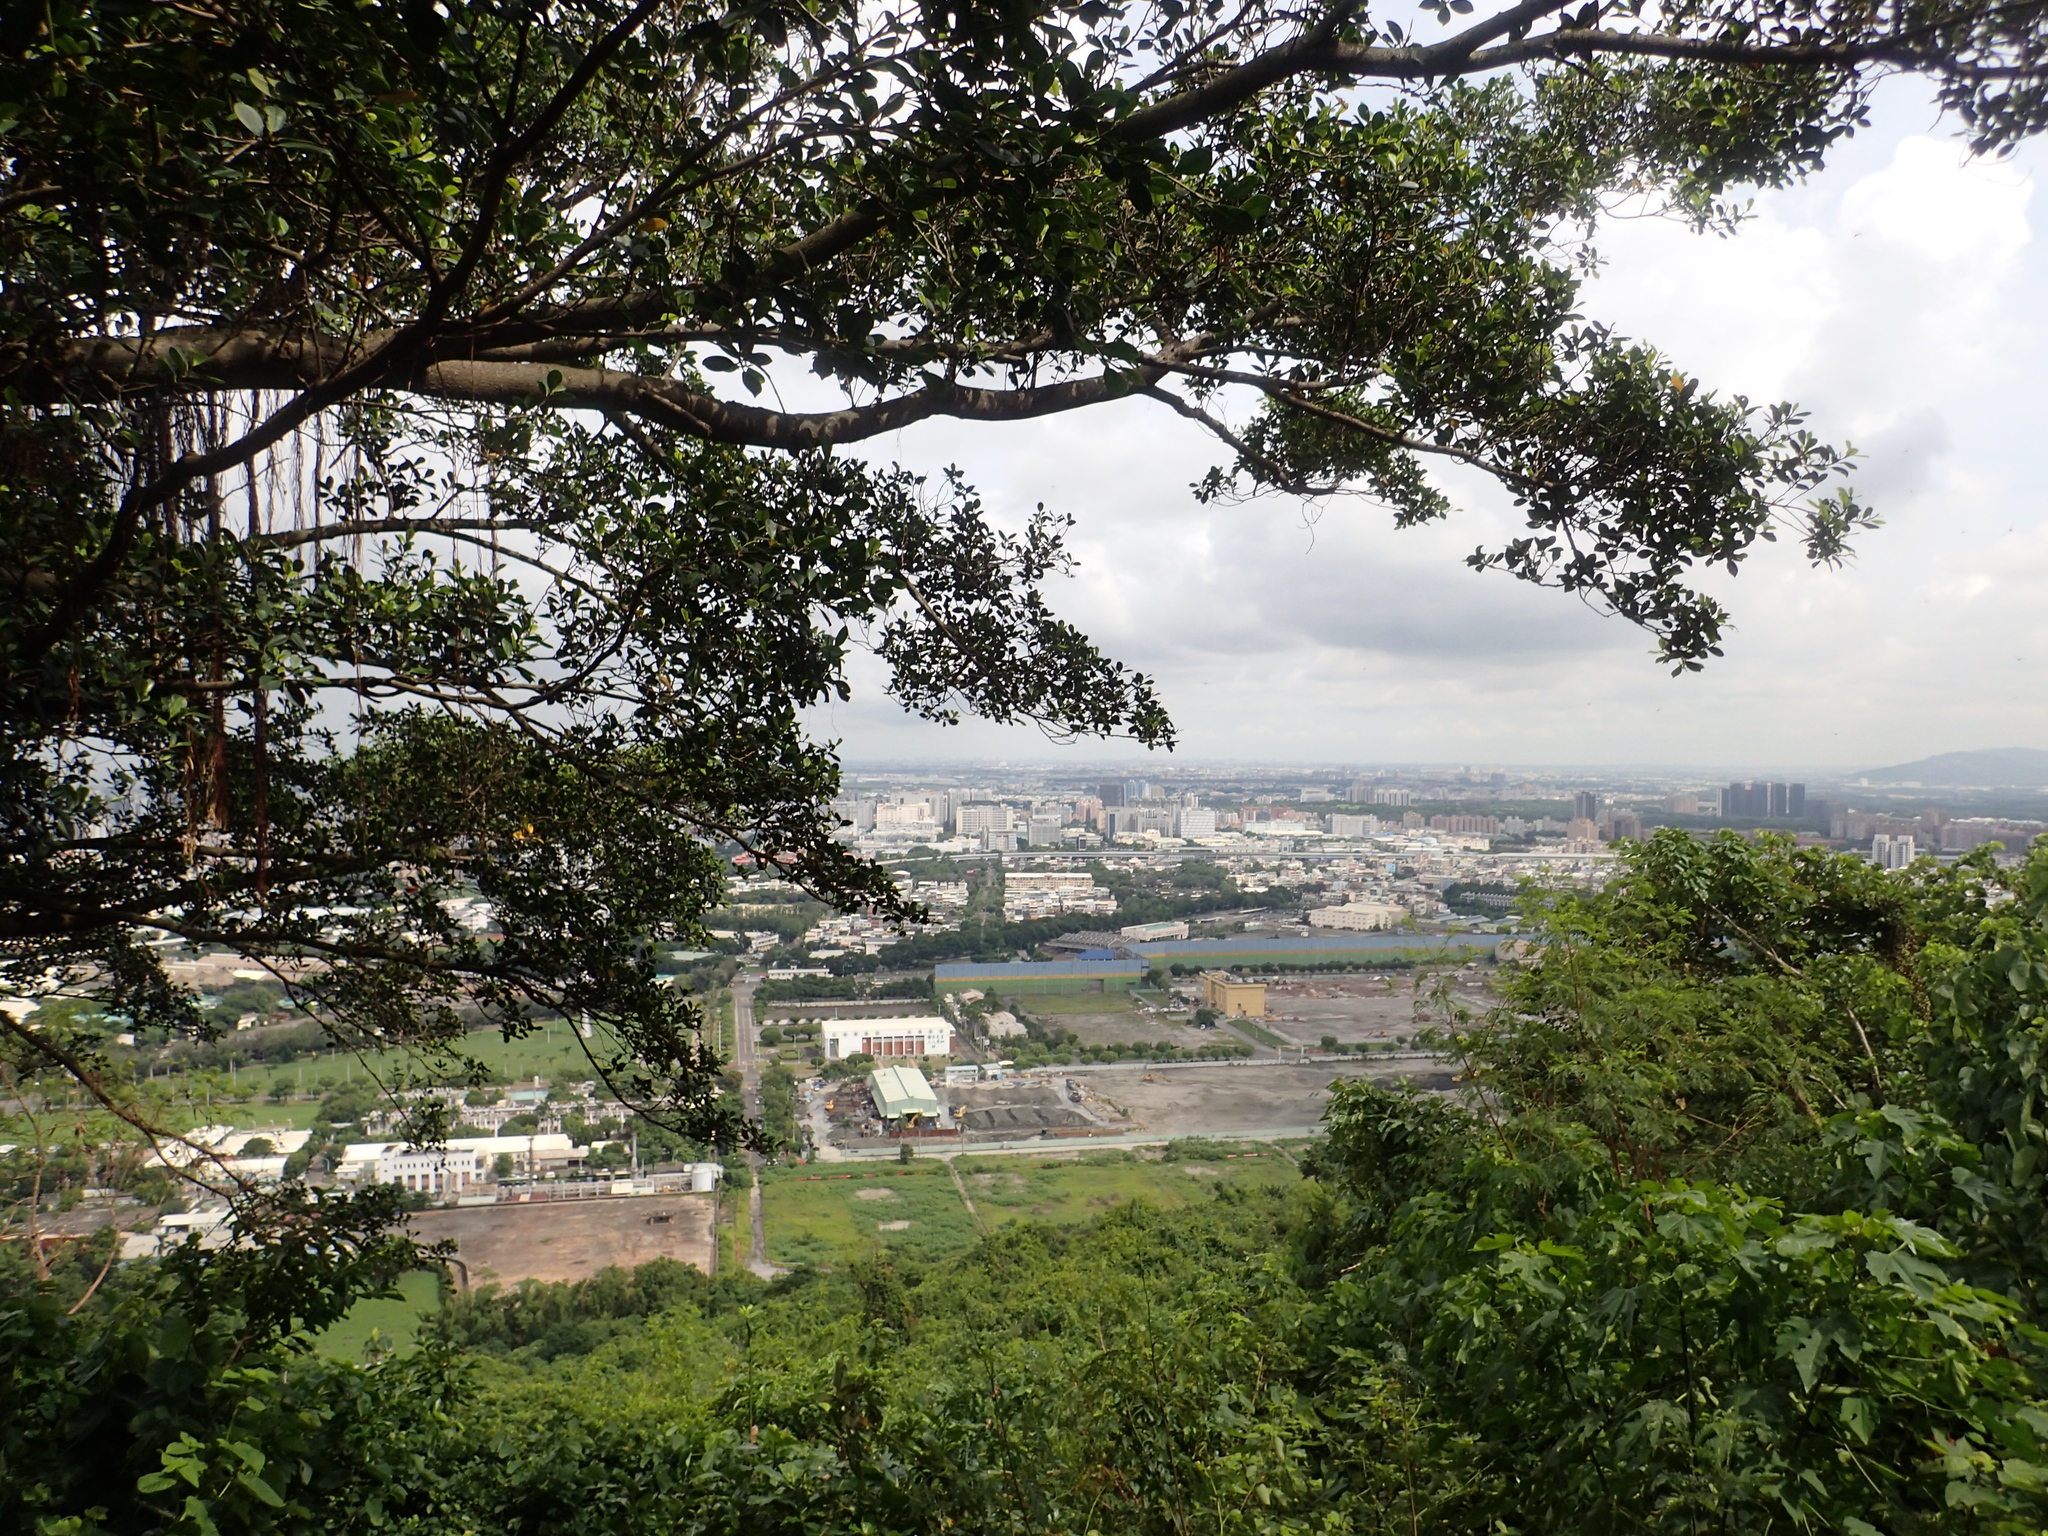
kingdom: Plantae
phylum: Tracheophyta
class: Magnoliopsida
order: Rosales
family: Moraceae
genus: Ficus
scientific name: Ficus microcarpa
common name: Chinese banyan
